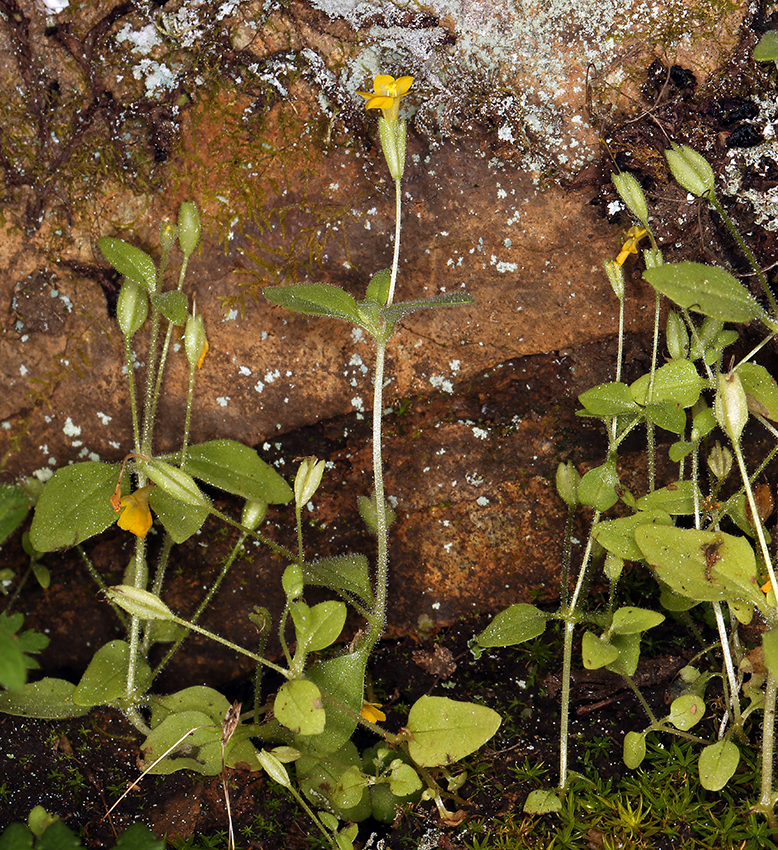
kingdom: Plantae
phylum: Tracheophyta
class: Magnoliopsida
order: Lamiales
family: Phrymaceae
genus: Erythranthe
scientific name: Erythranthe taylorii
